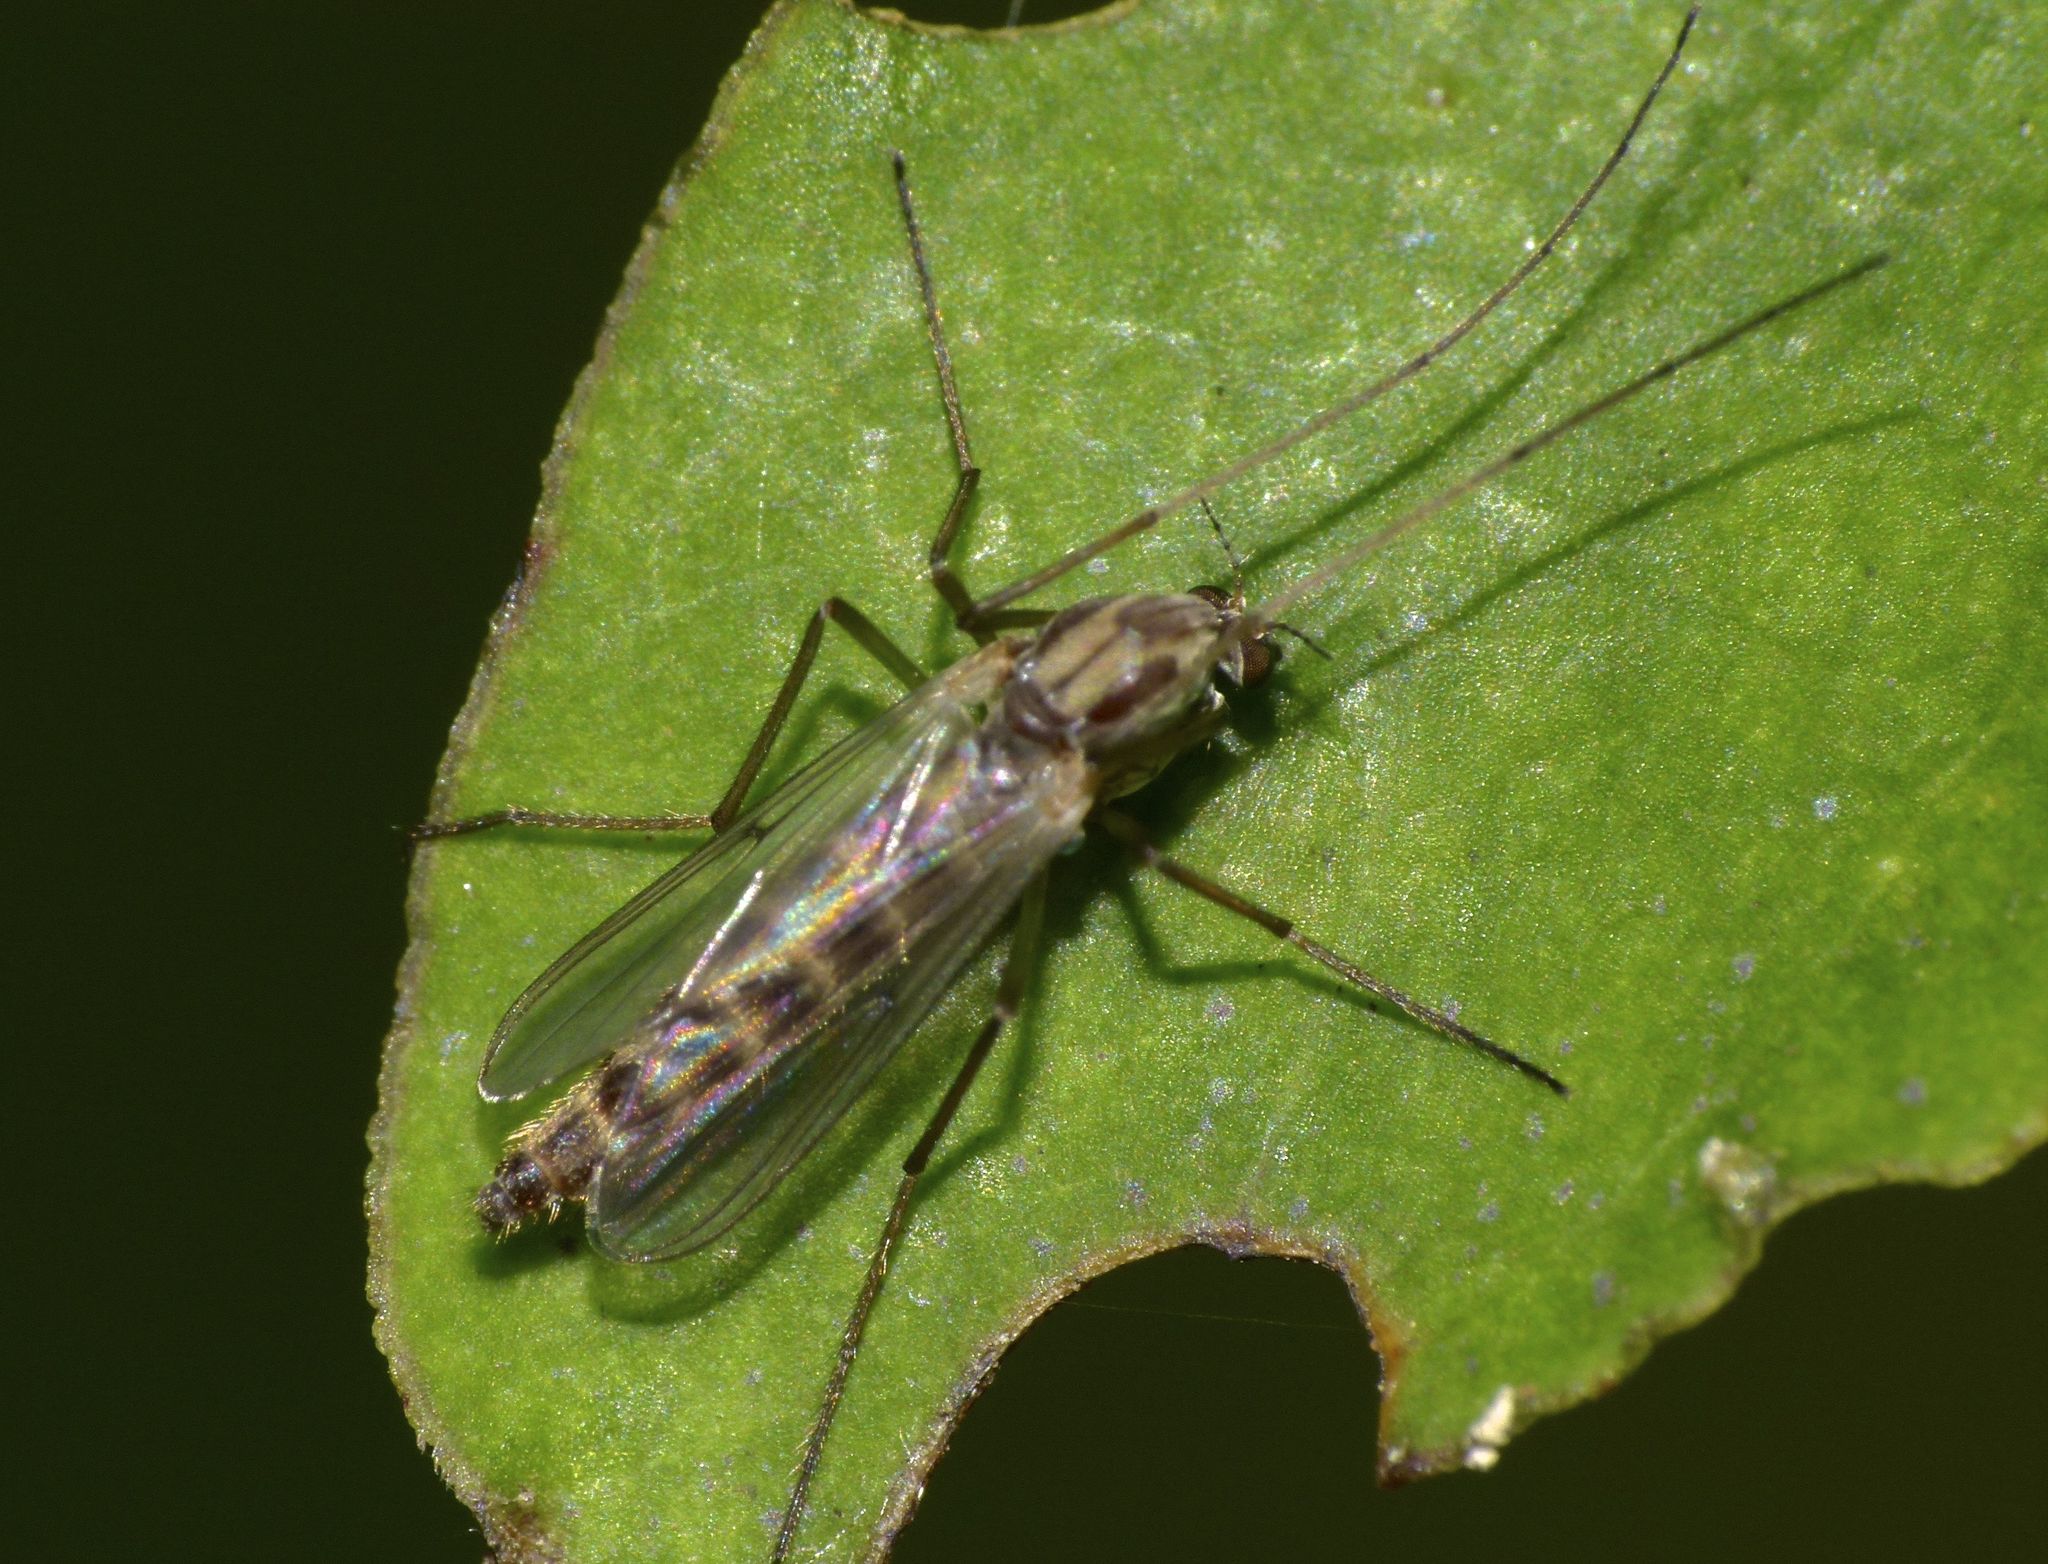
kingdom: Animalia
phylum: Arthropoda
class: Insecta
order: Diptera
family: Chironomidae
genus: Chironomus
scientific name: Chironomus zealandicus
